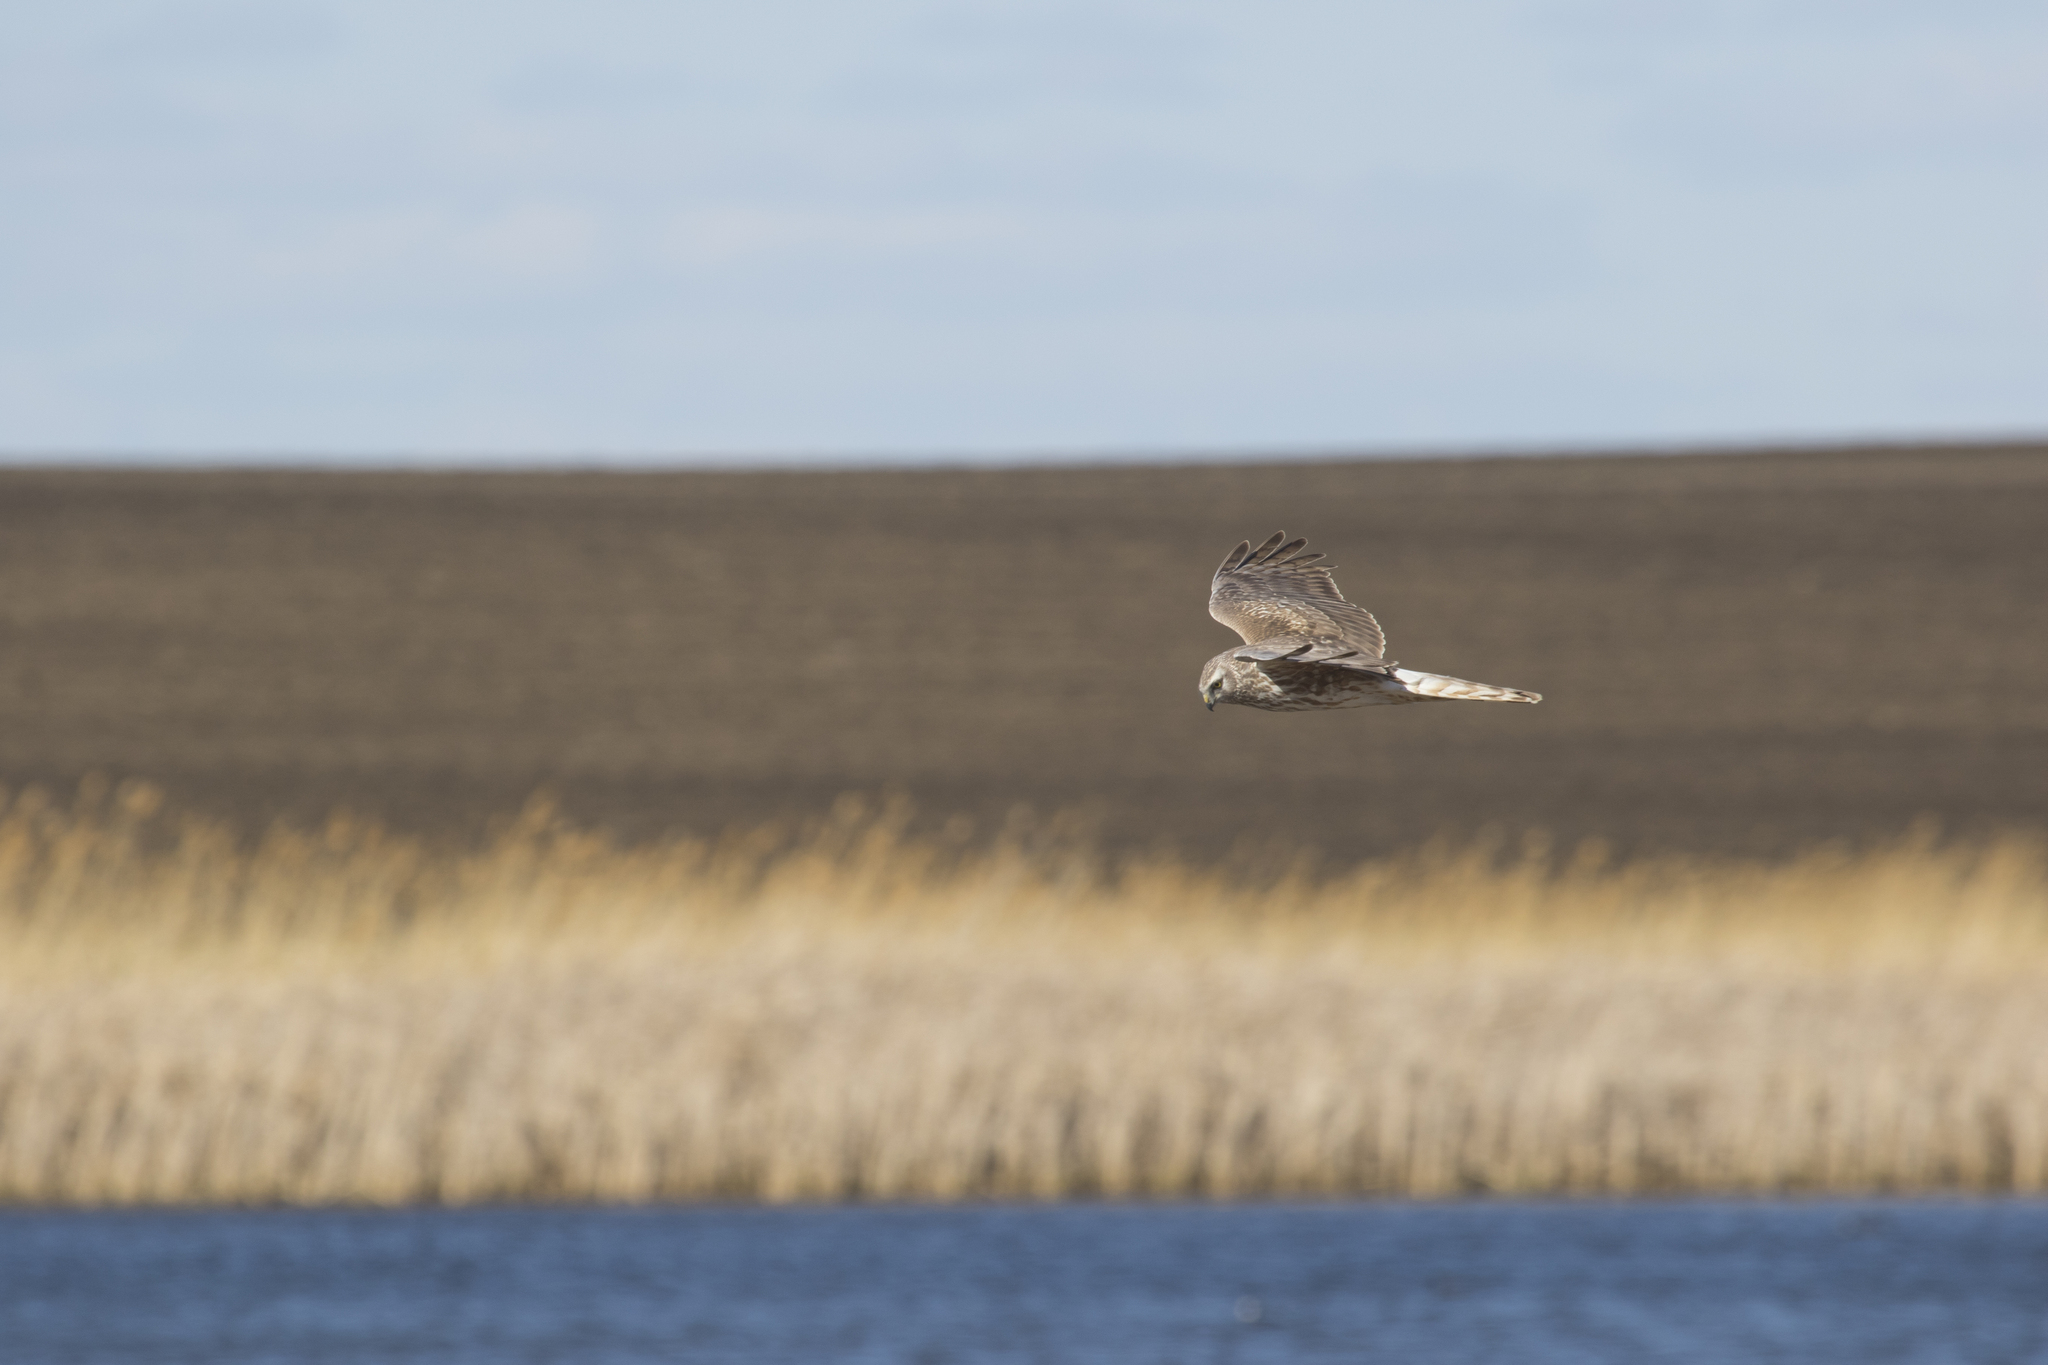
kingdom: Animalia
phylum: Chordata
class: Aves
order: Accipitriformes
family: Accipitridae
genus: Circus
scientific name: Circus cyaneus
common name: Hen harrier
